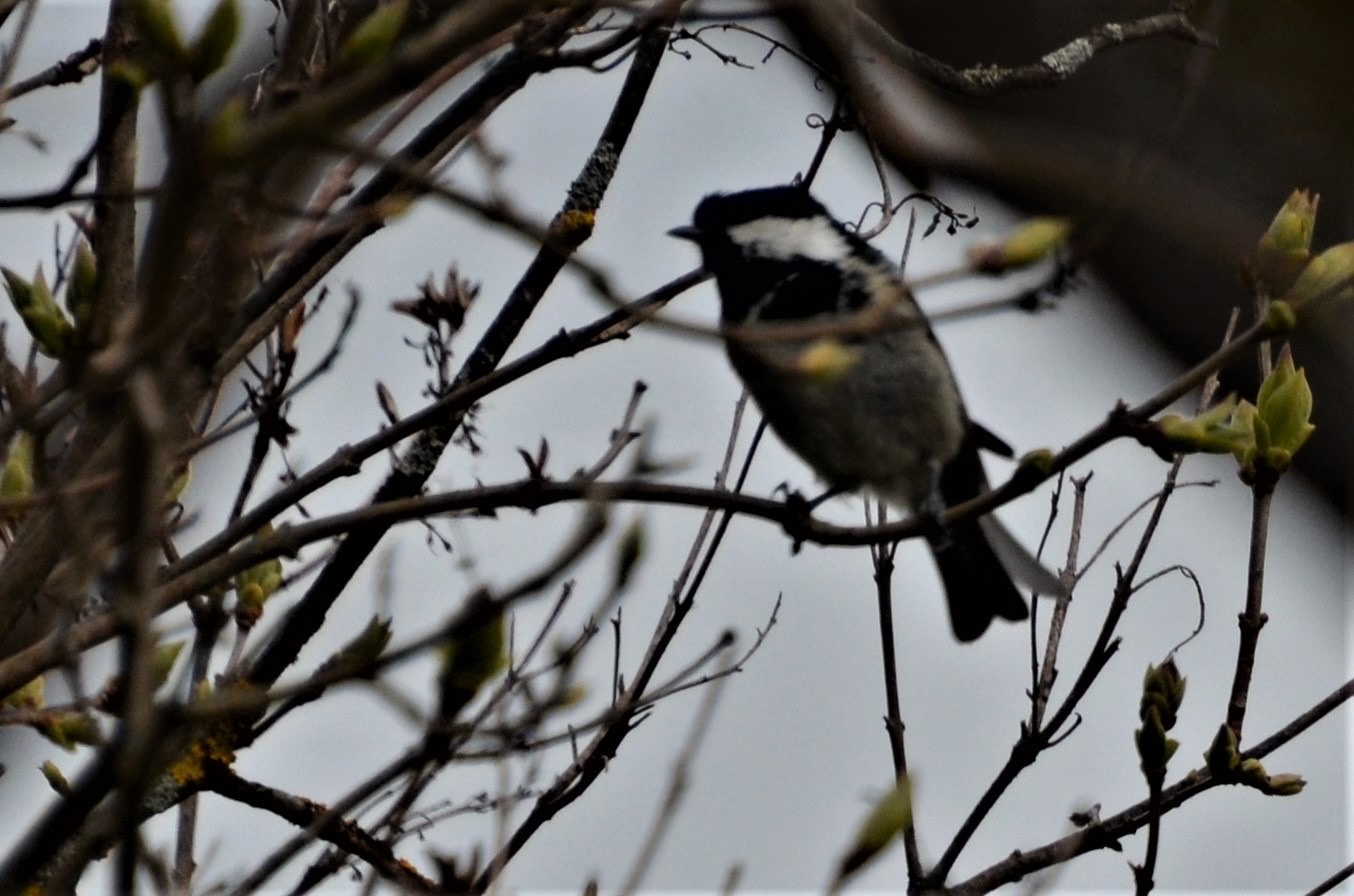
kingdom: Animalia
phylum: Chordata
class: Aves
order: Passeriformes
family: Paridae
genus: Periparus
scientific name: Periparus ater
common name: Coal tit
